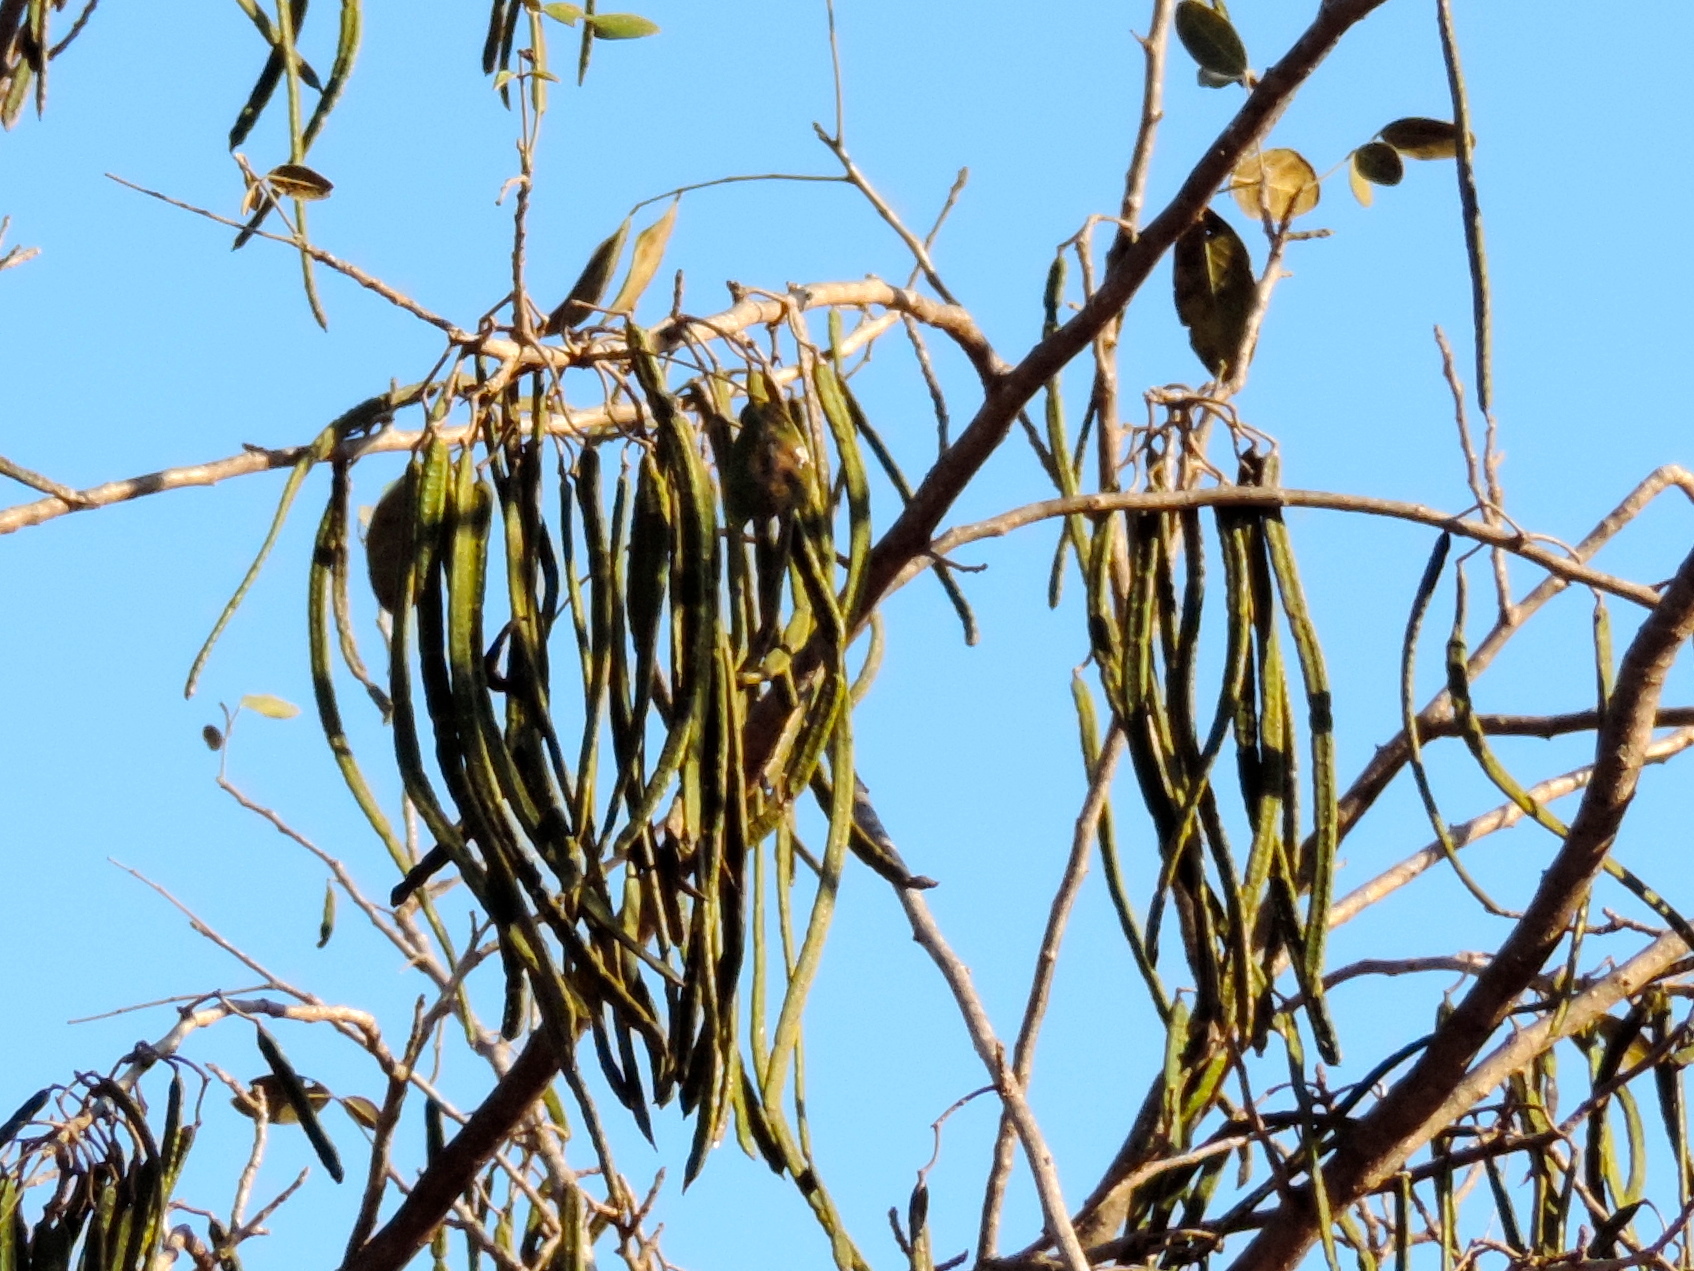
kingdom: Plantae
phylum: Tracheophyta
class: Magnoliopsida
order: Fabales
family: Fabaceae
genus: Senna
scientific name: Senna atomaria
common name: Flor de san jose
